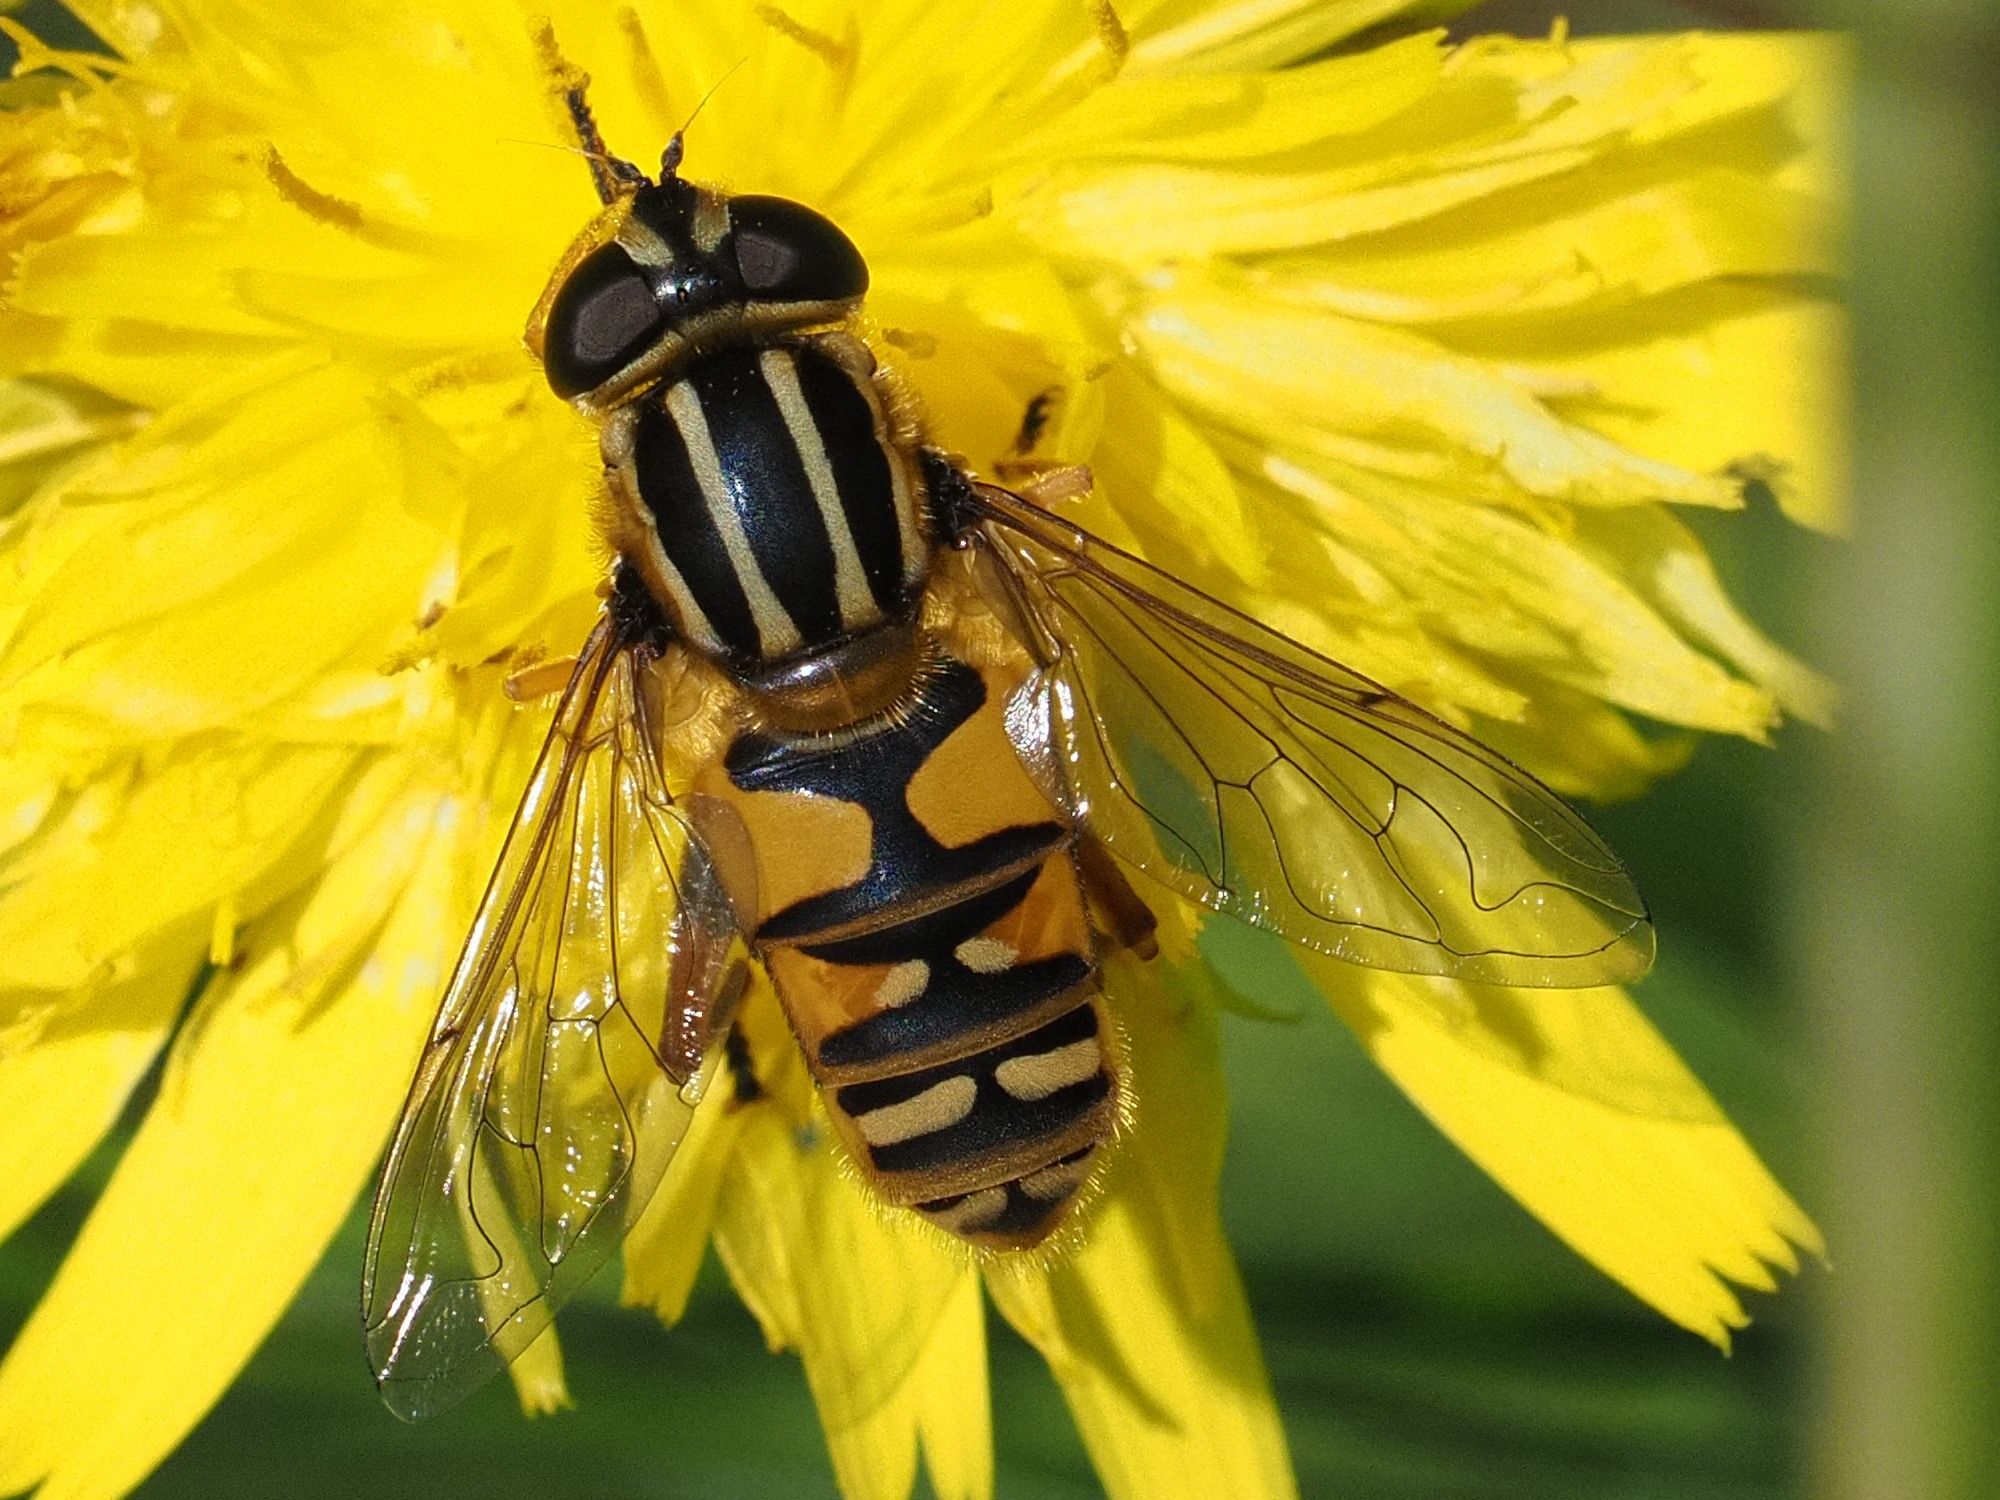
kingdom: Animalia
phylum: Arthropoda
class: Insecta
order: Diptera
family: Syrphidae
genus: Helophilus
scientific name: Helophilus pendulus
